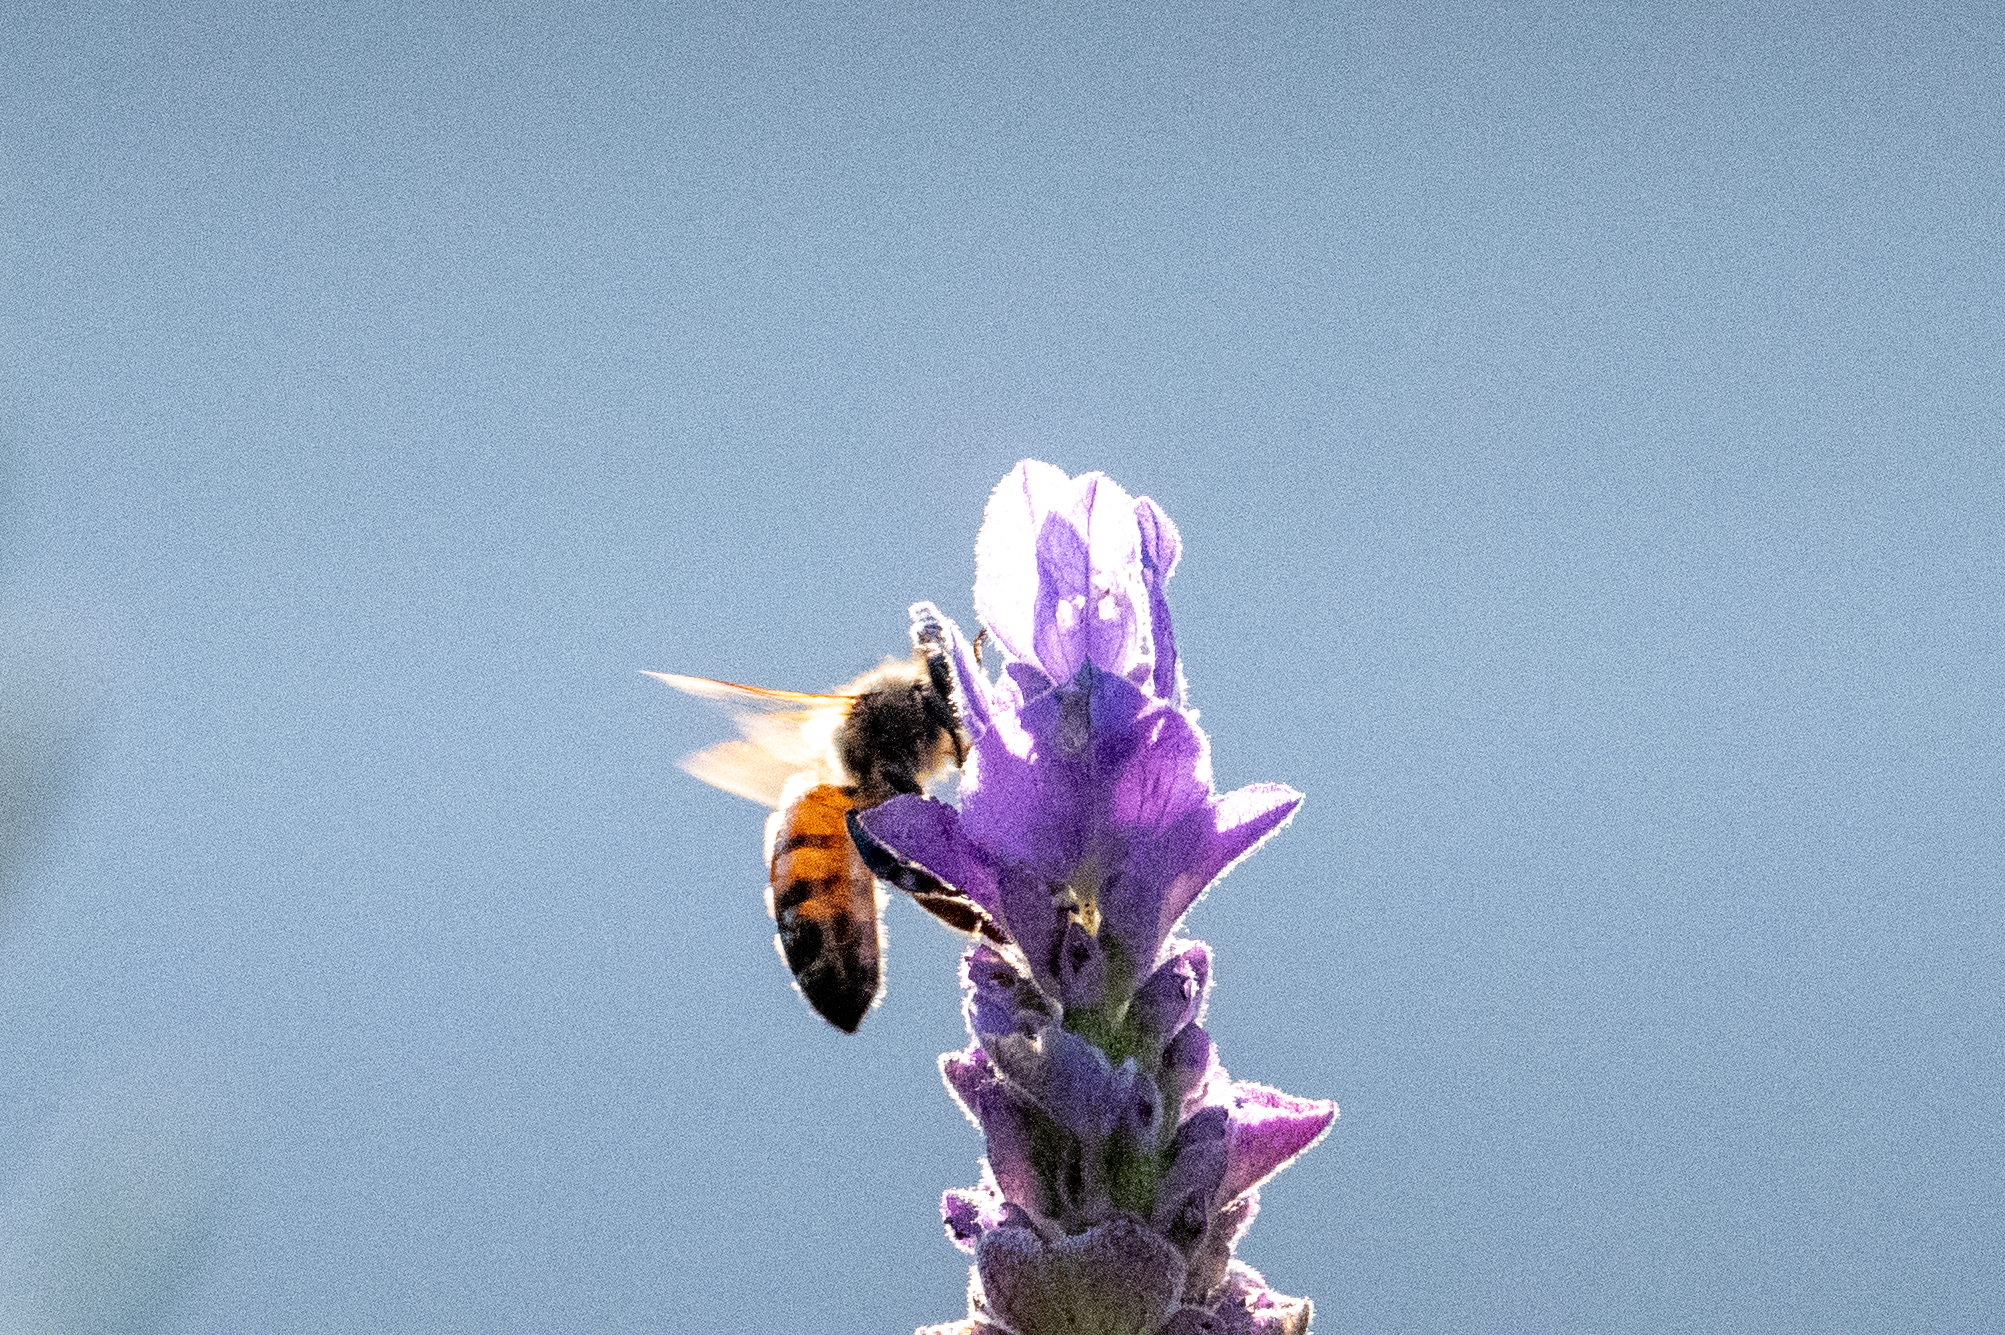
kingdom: Animalia
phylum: Arthropoda
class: Insecta
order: Hymenoptera
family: Apidae
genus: Apis
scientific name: Apis mellifera
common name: Honey bee
